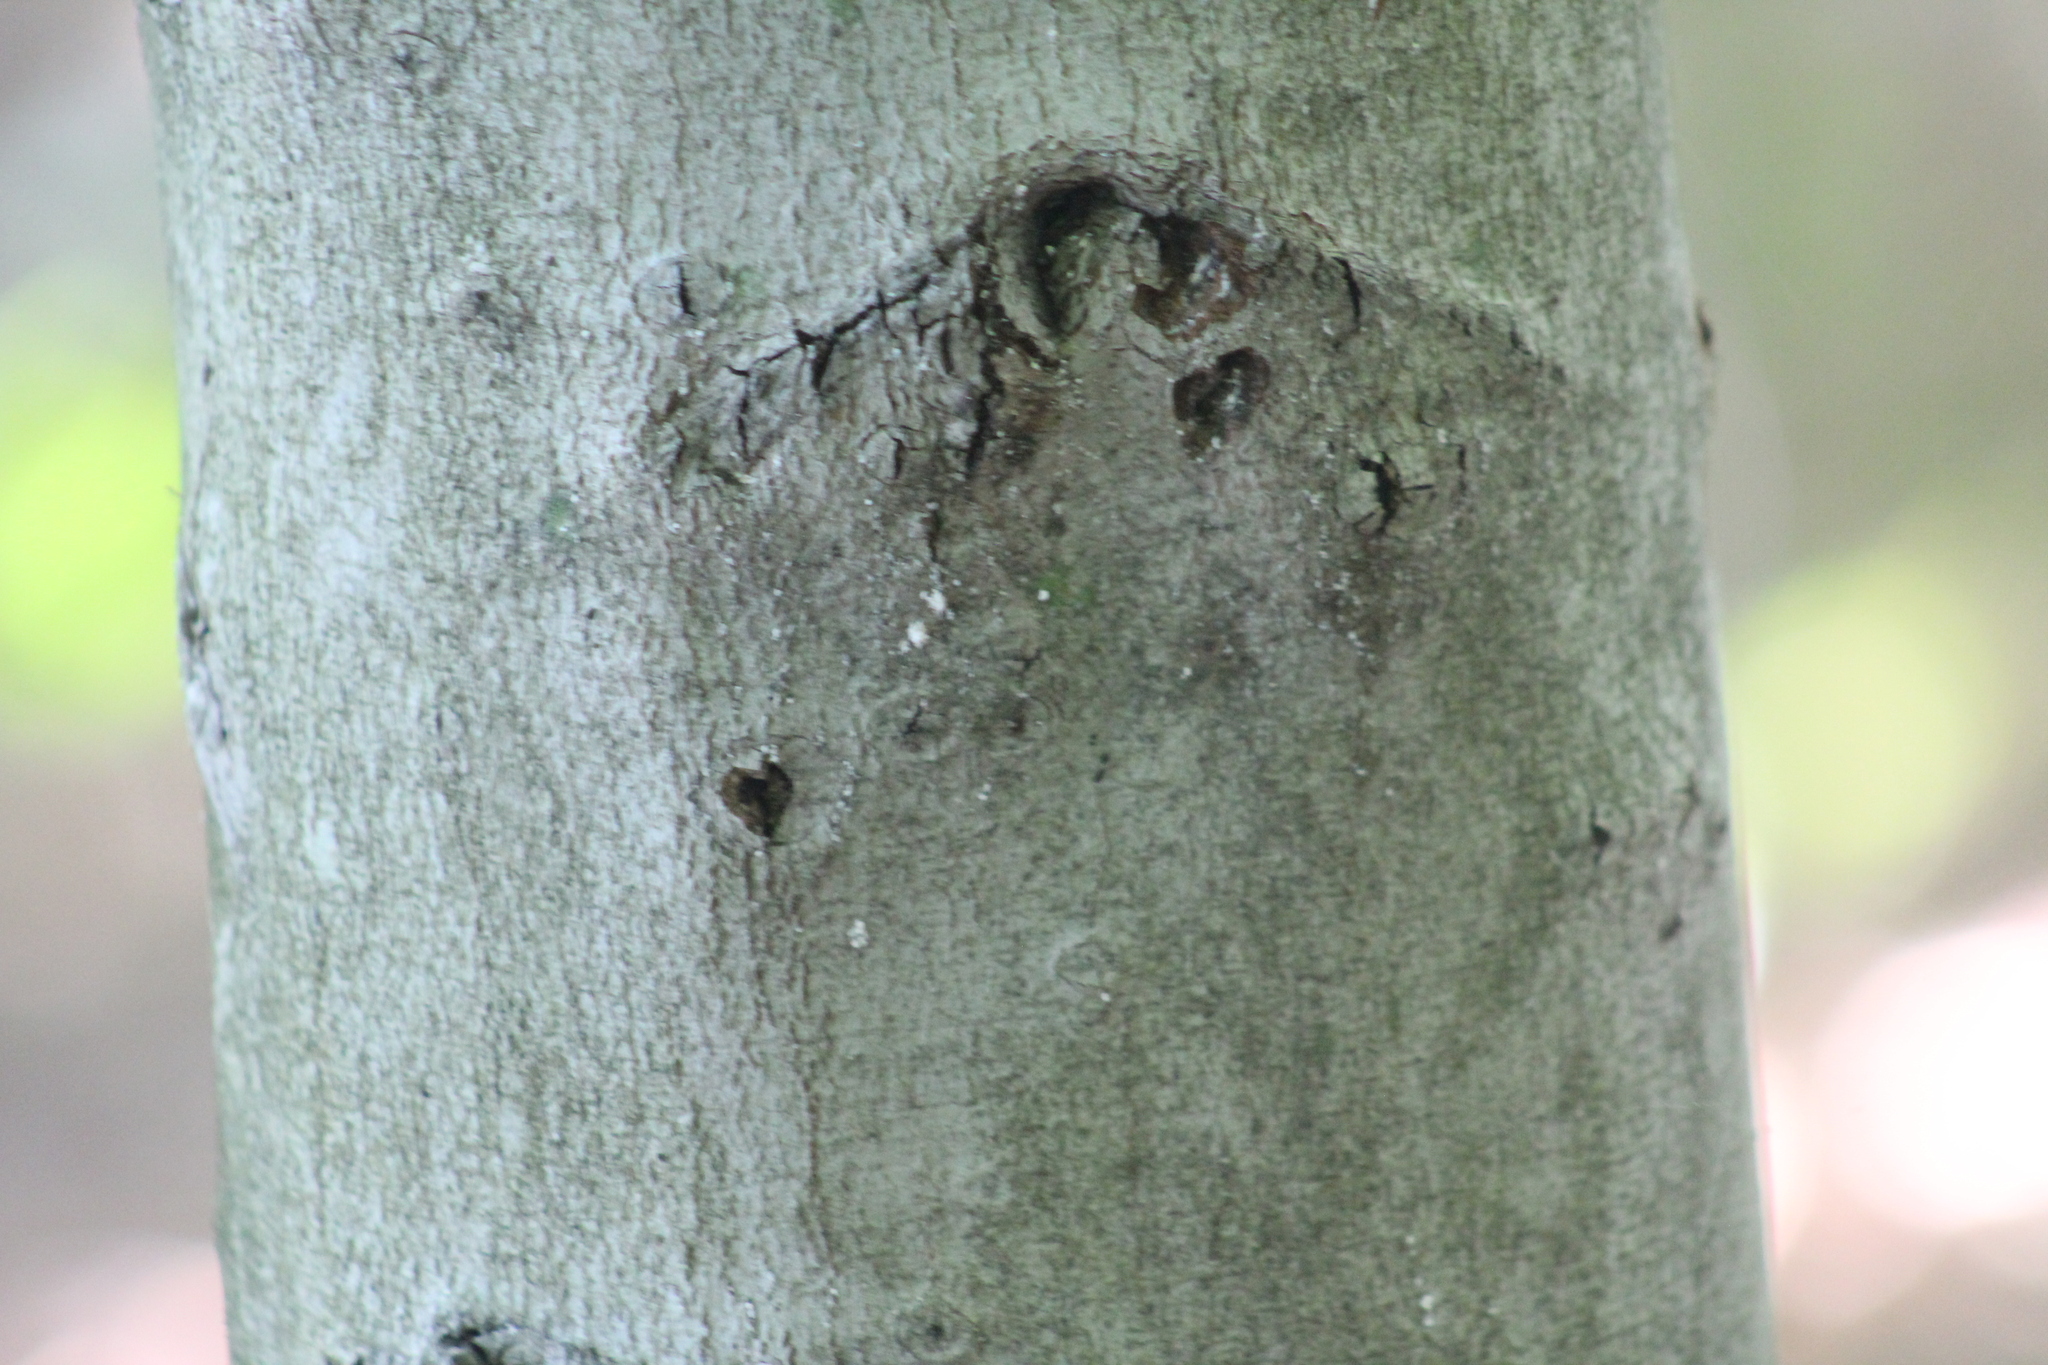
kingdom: Plantae
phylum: Tracheophyta
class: Magnoliopsida
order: Fagales
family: Fagaceae
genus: Fagus
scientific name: Fagus grandifolia
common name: American beech
